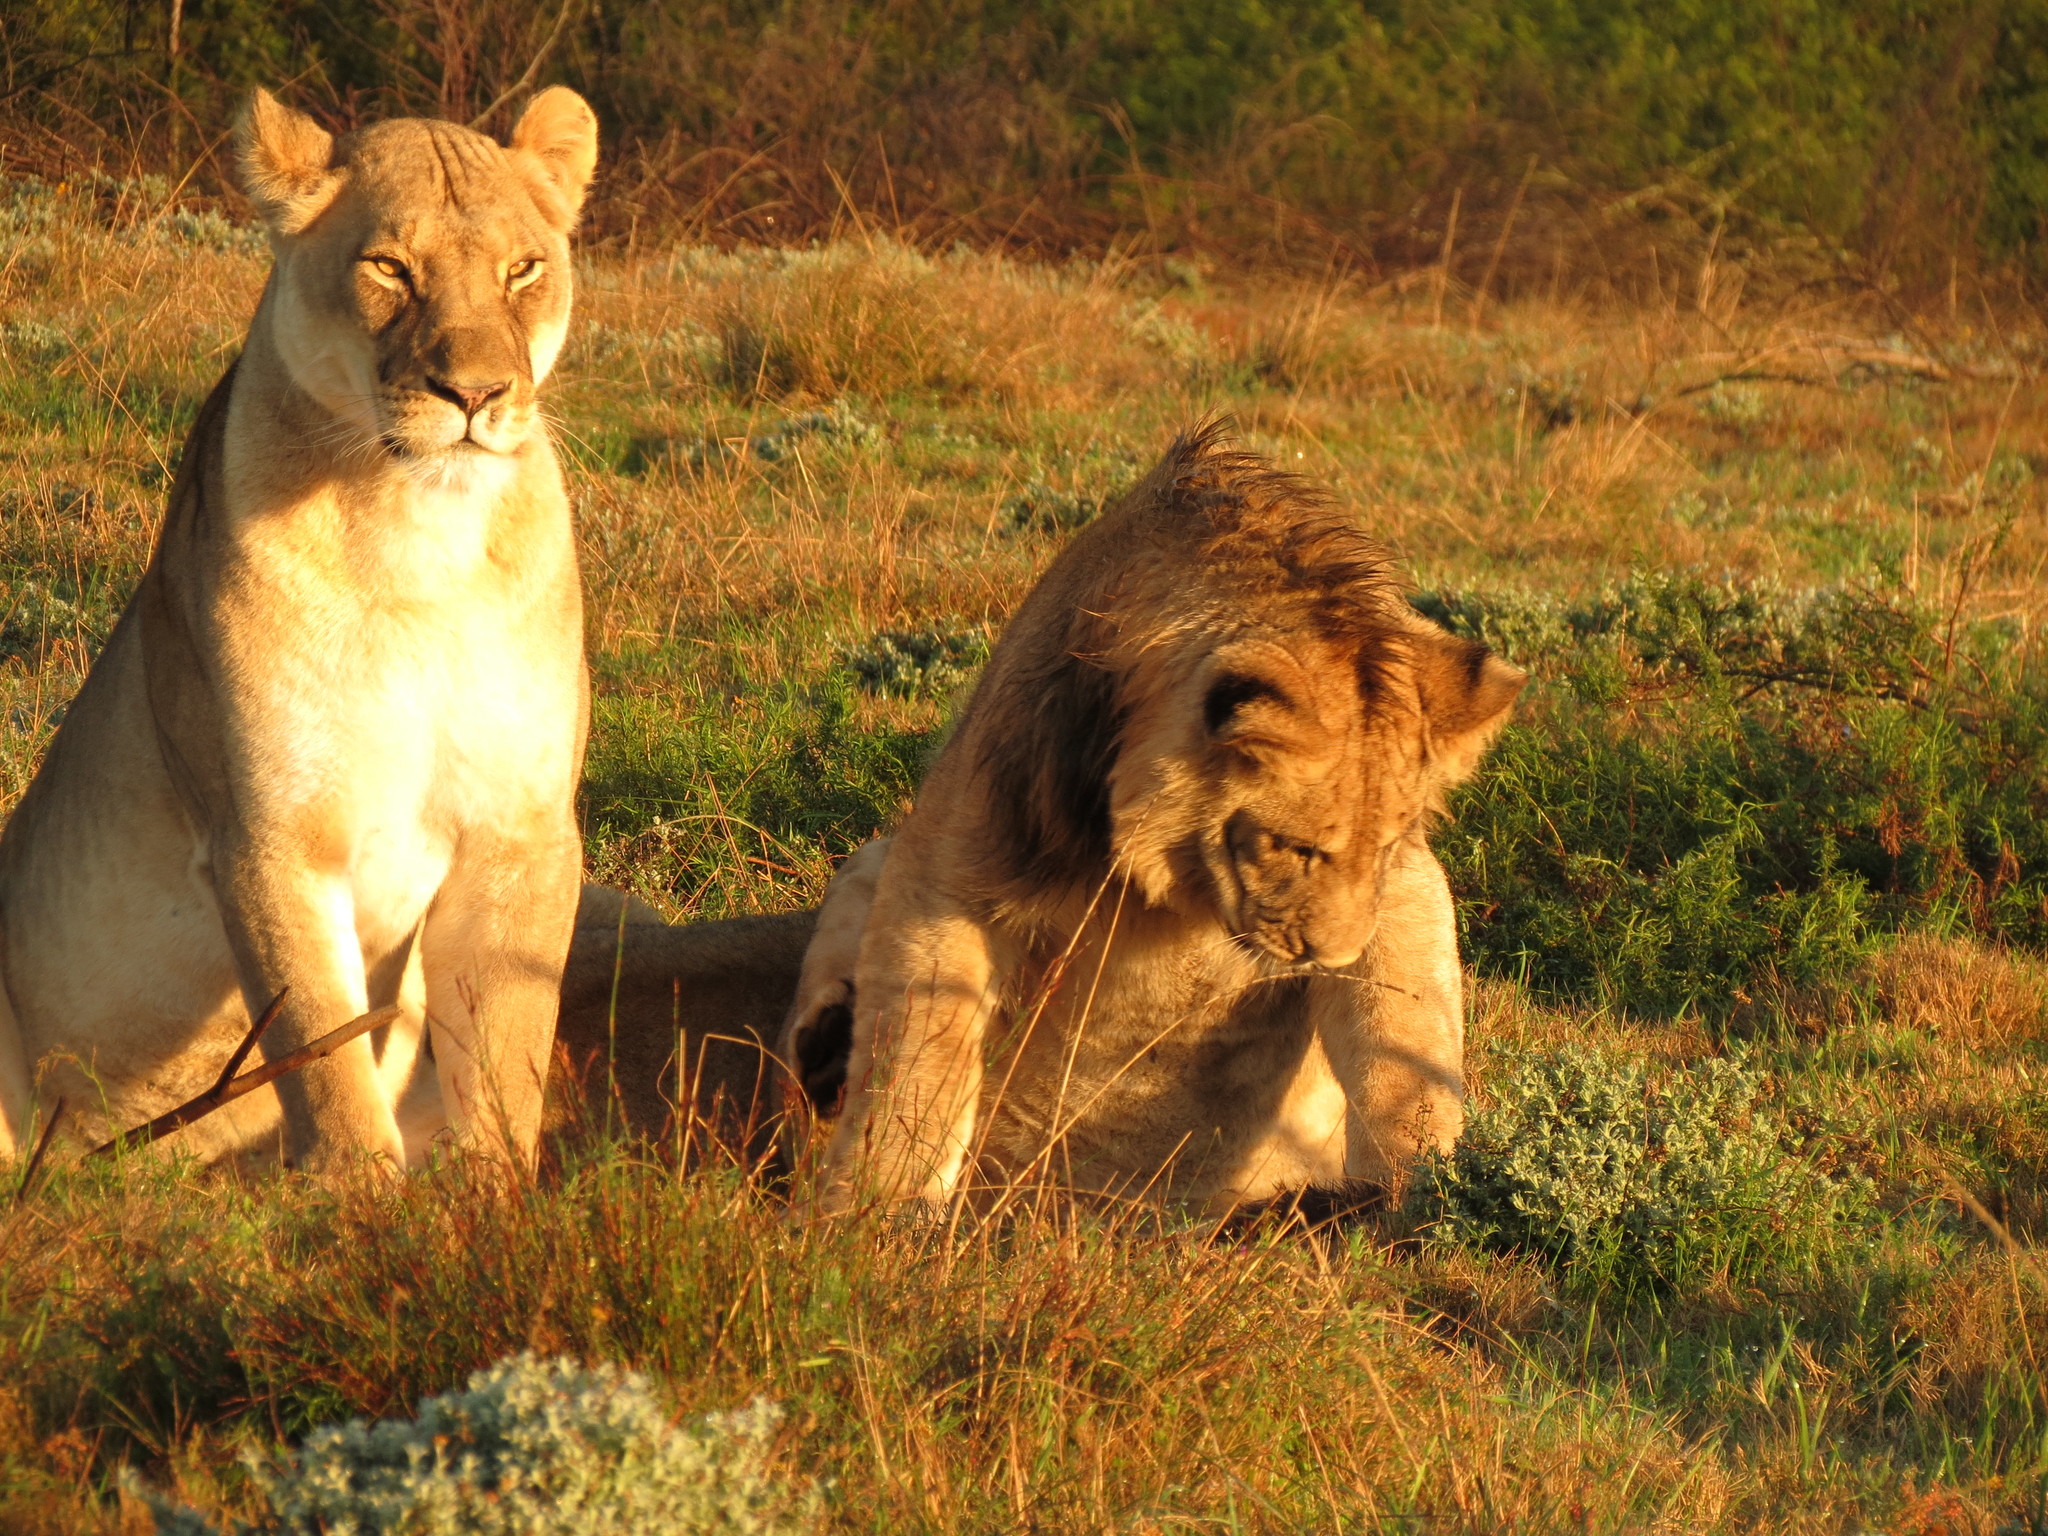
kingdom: Animalia
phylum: Chordata
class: Mammalia
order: Carnivora
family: Felidae
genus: Panthera
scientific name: Panthera leo
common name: Lion
